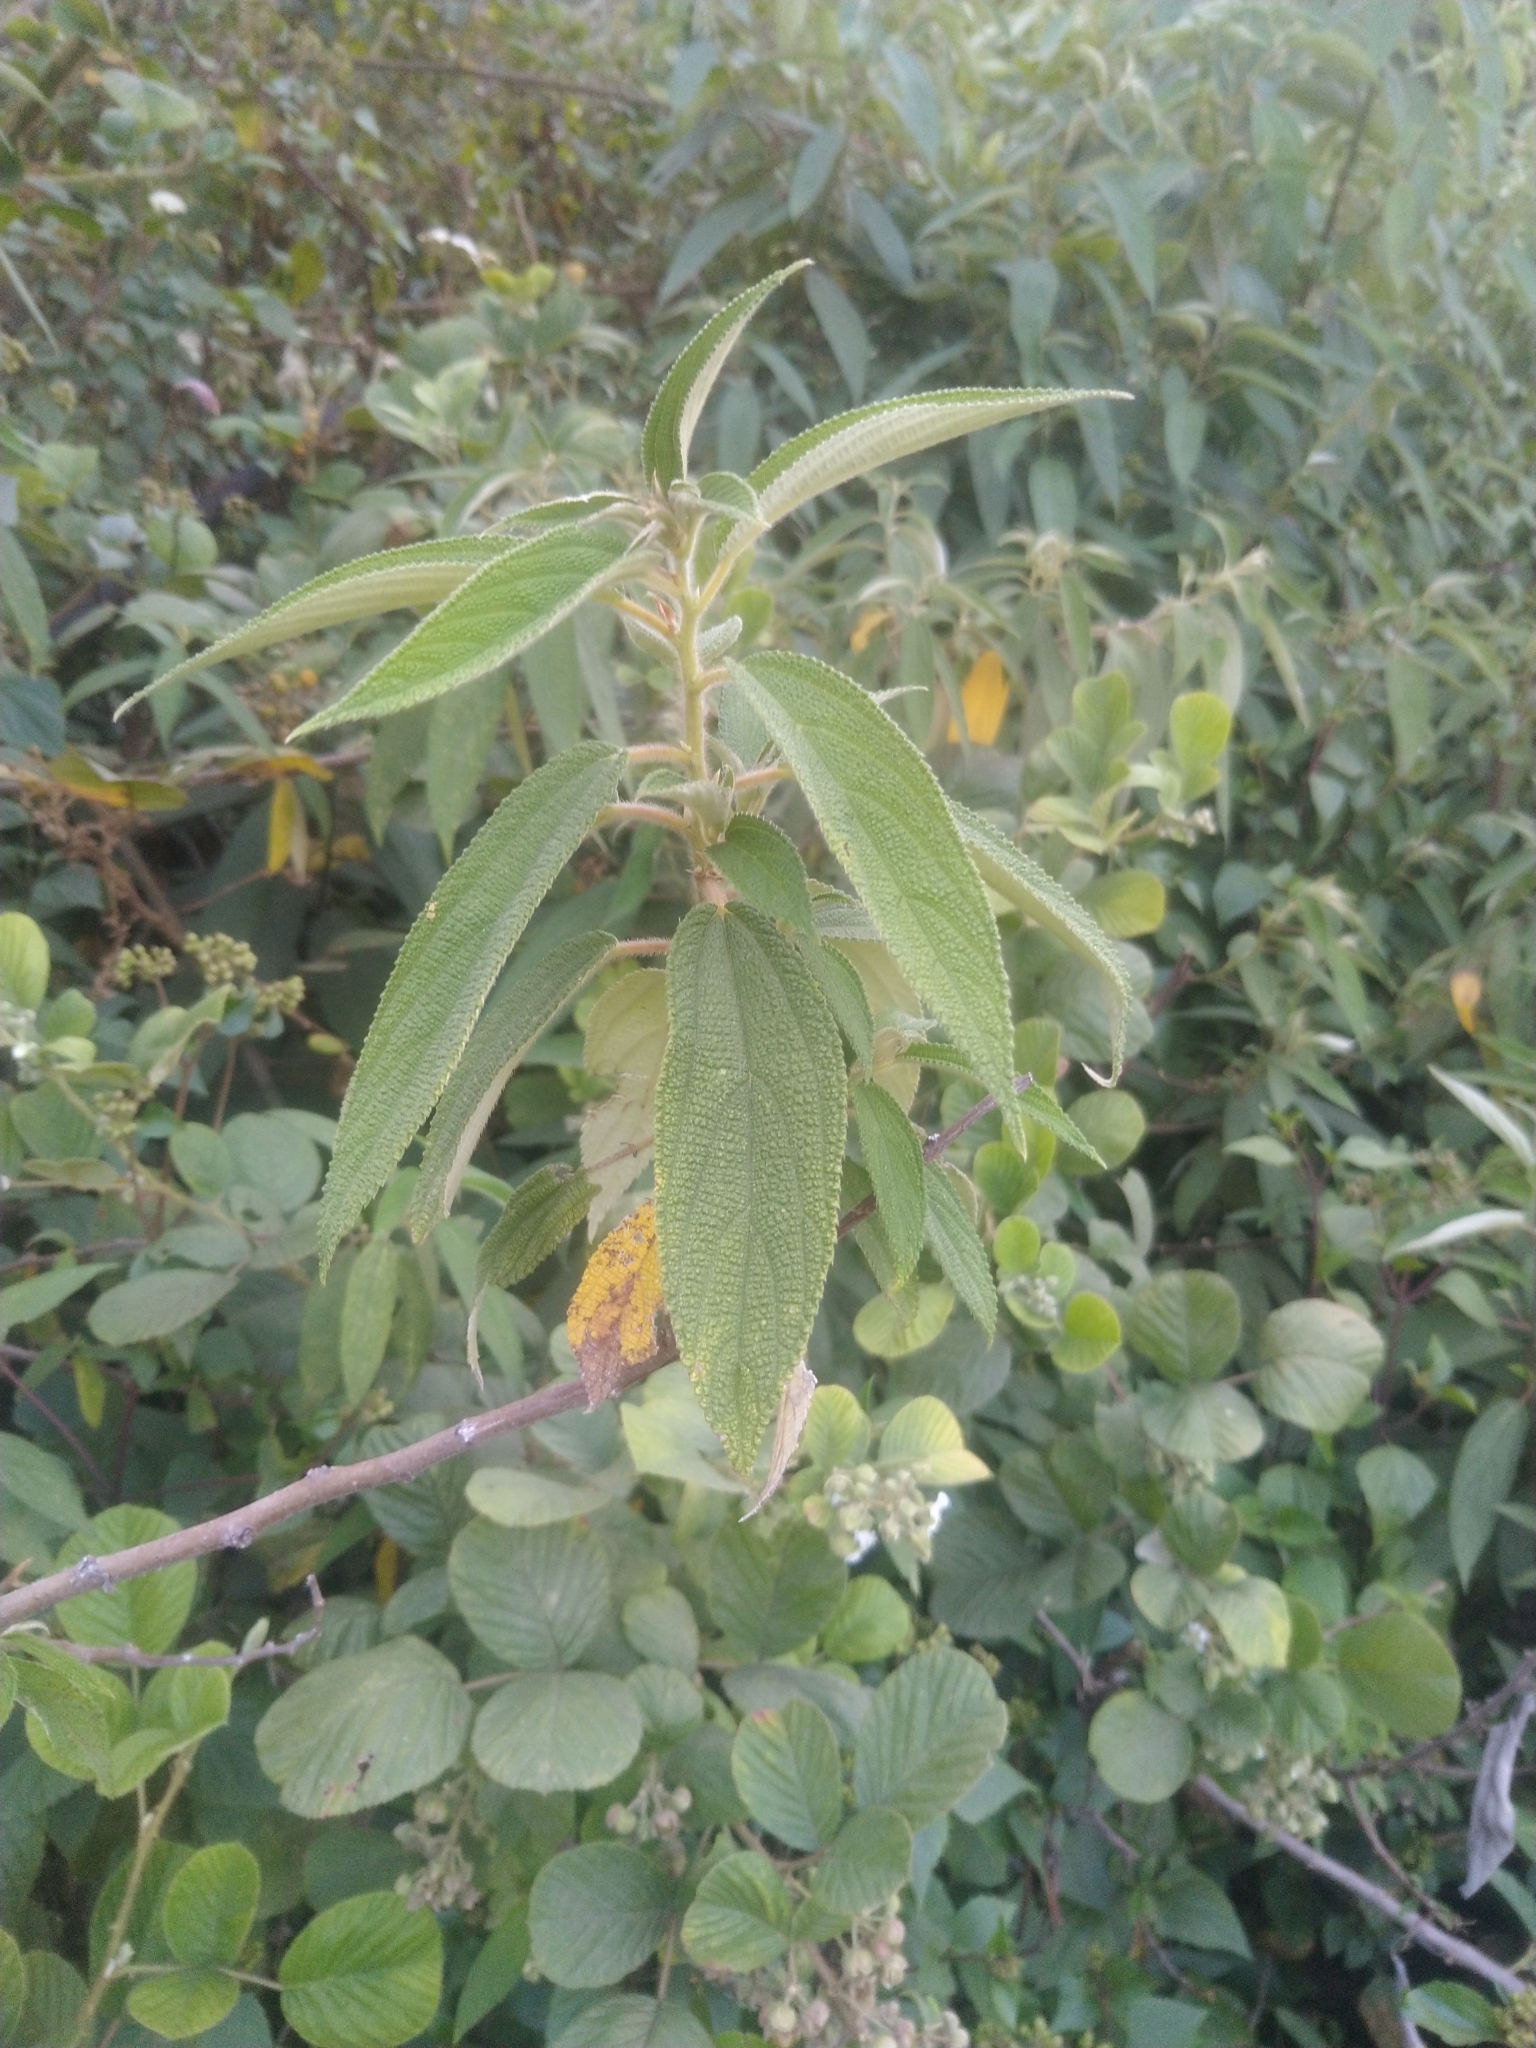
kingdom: Plantae
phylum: Tracheophyta
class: Magnoliopsida
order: Rosales
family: Urticaceae
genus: Debregeasia
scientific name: Debregeasia longifolia
